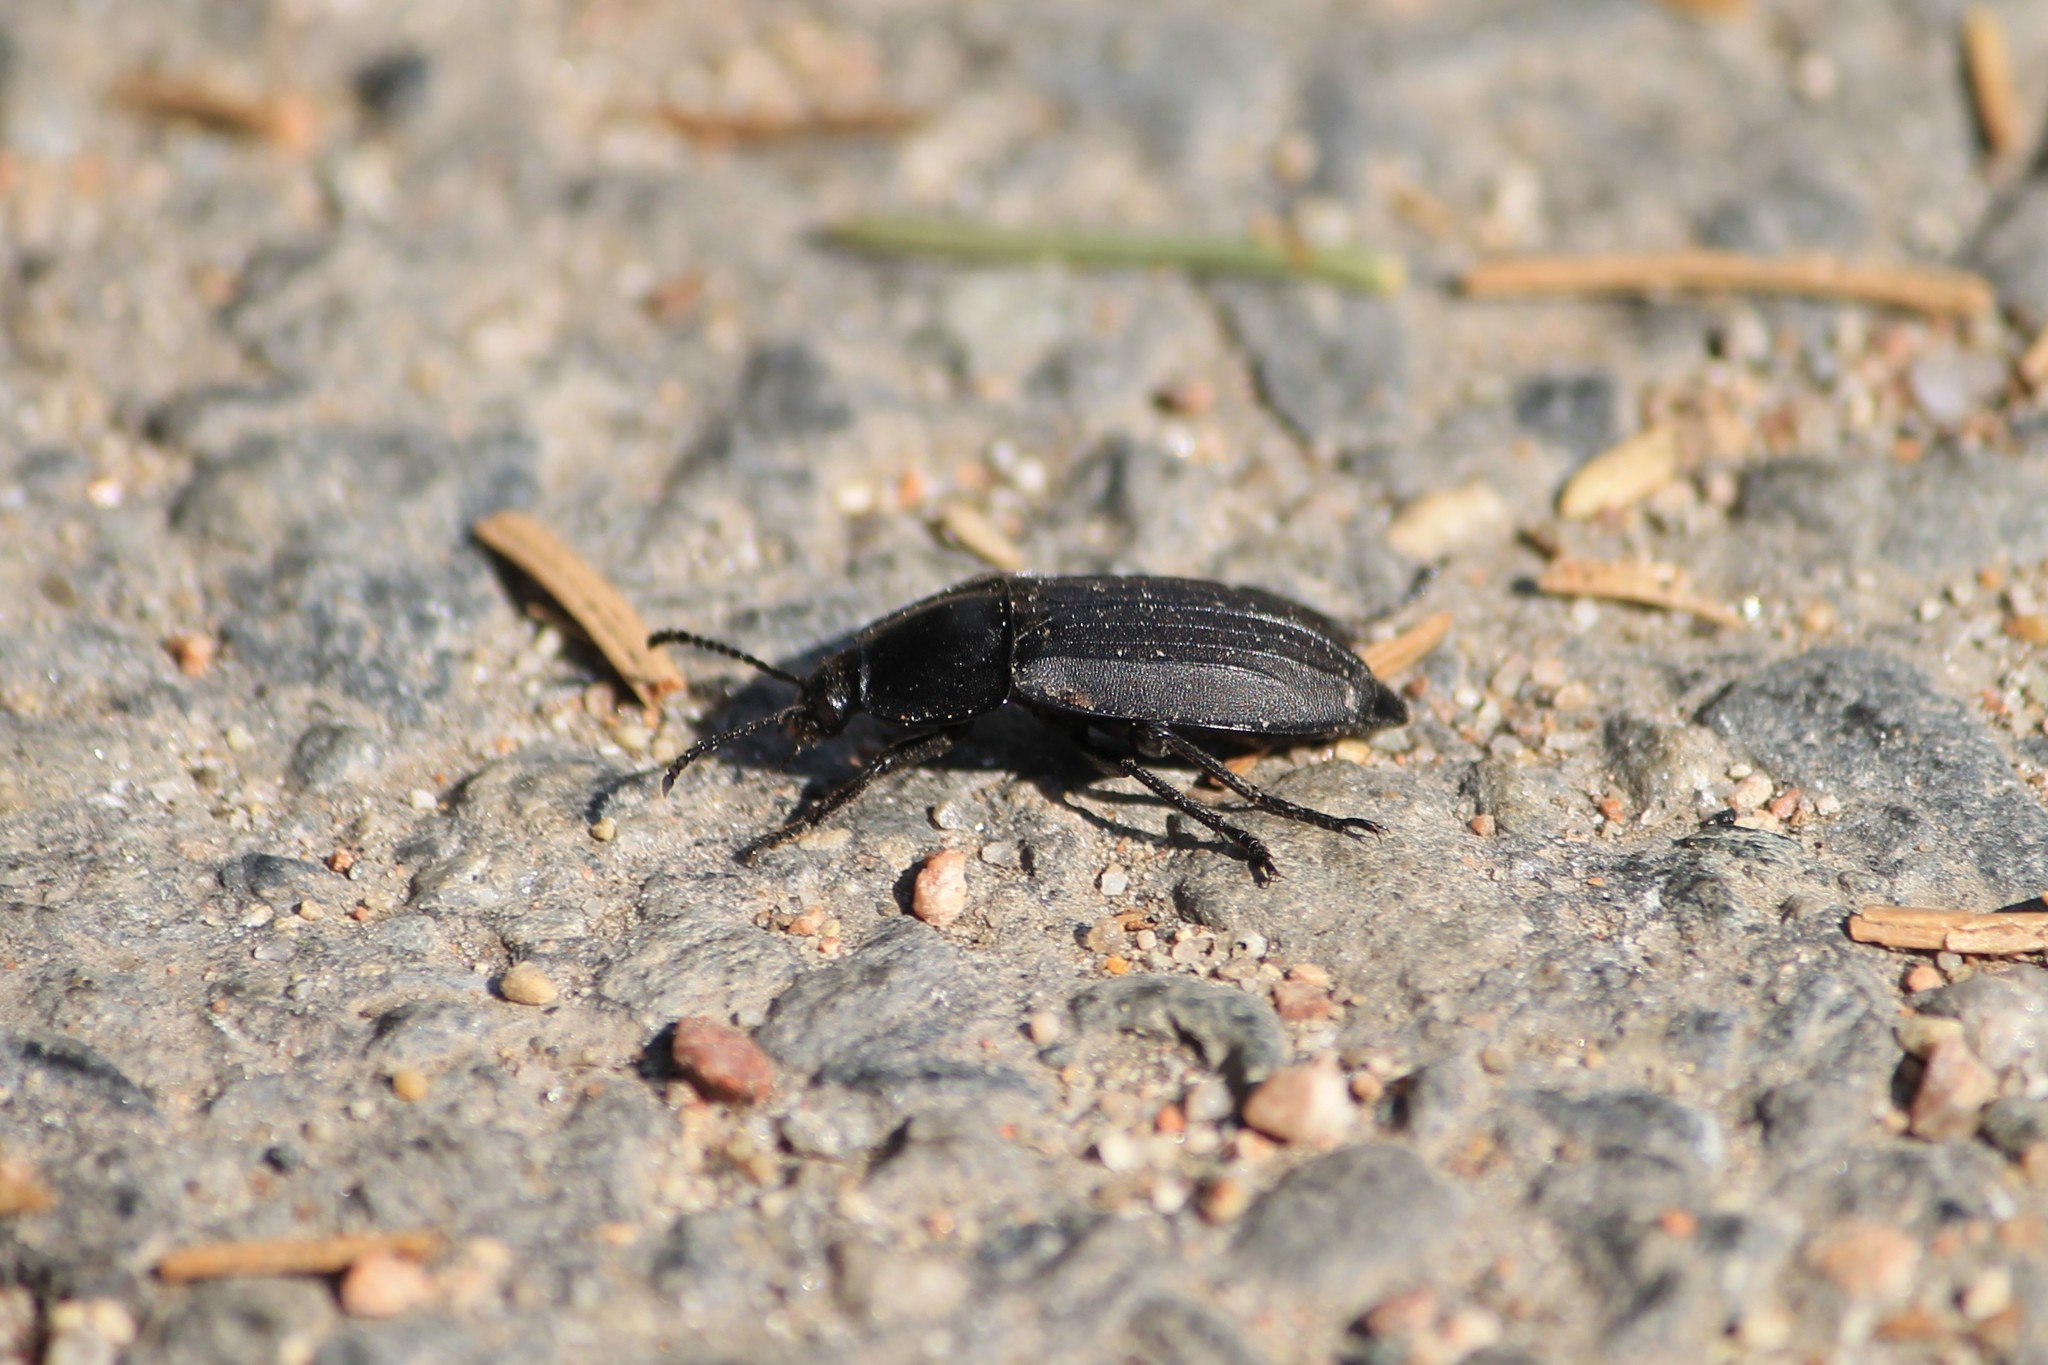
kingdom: Animalia
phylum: Arthropoda
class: Insecta
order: Coleoptera
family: Staphylinidae
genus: Silpha
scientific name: Silpha carinata
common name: Silphid beetle
